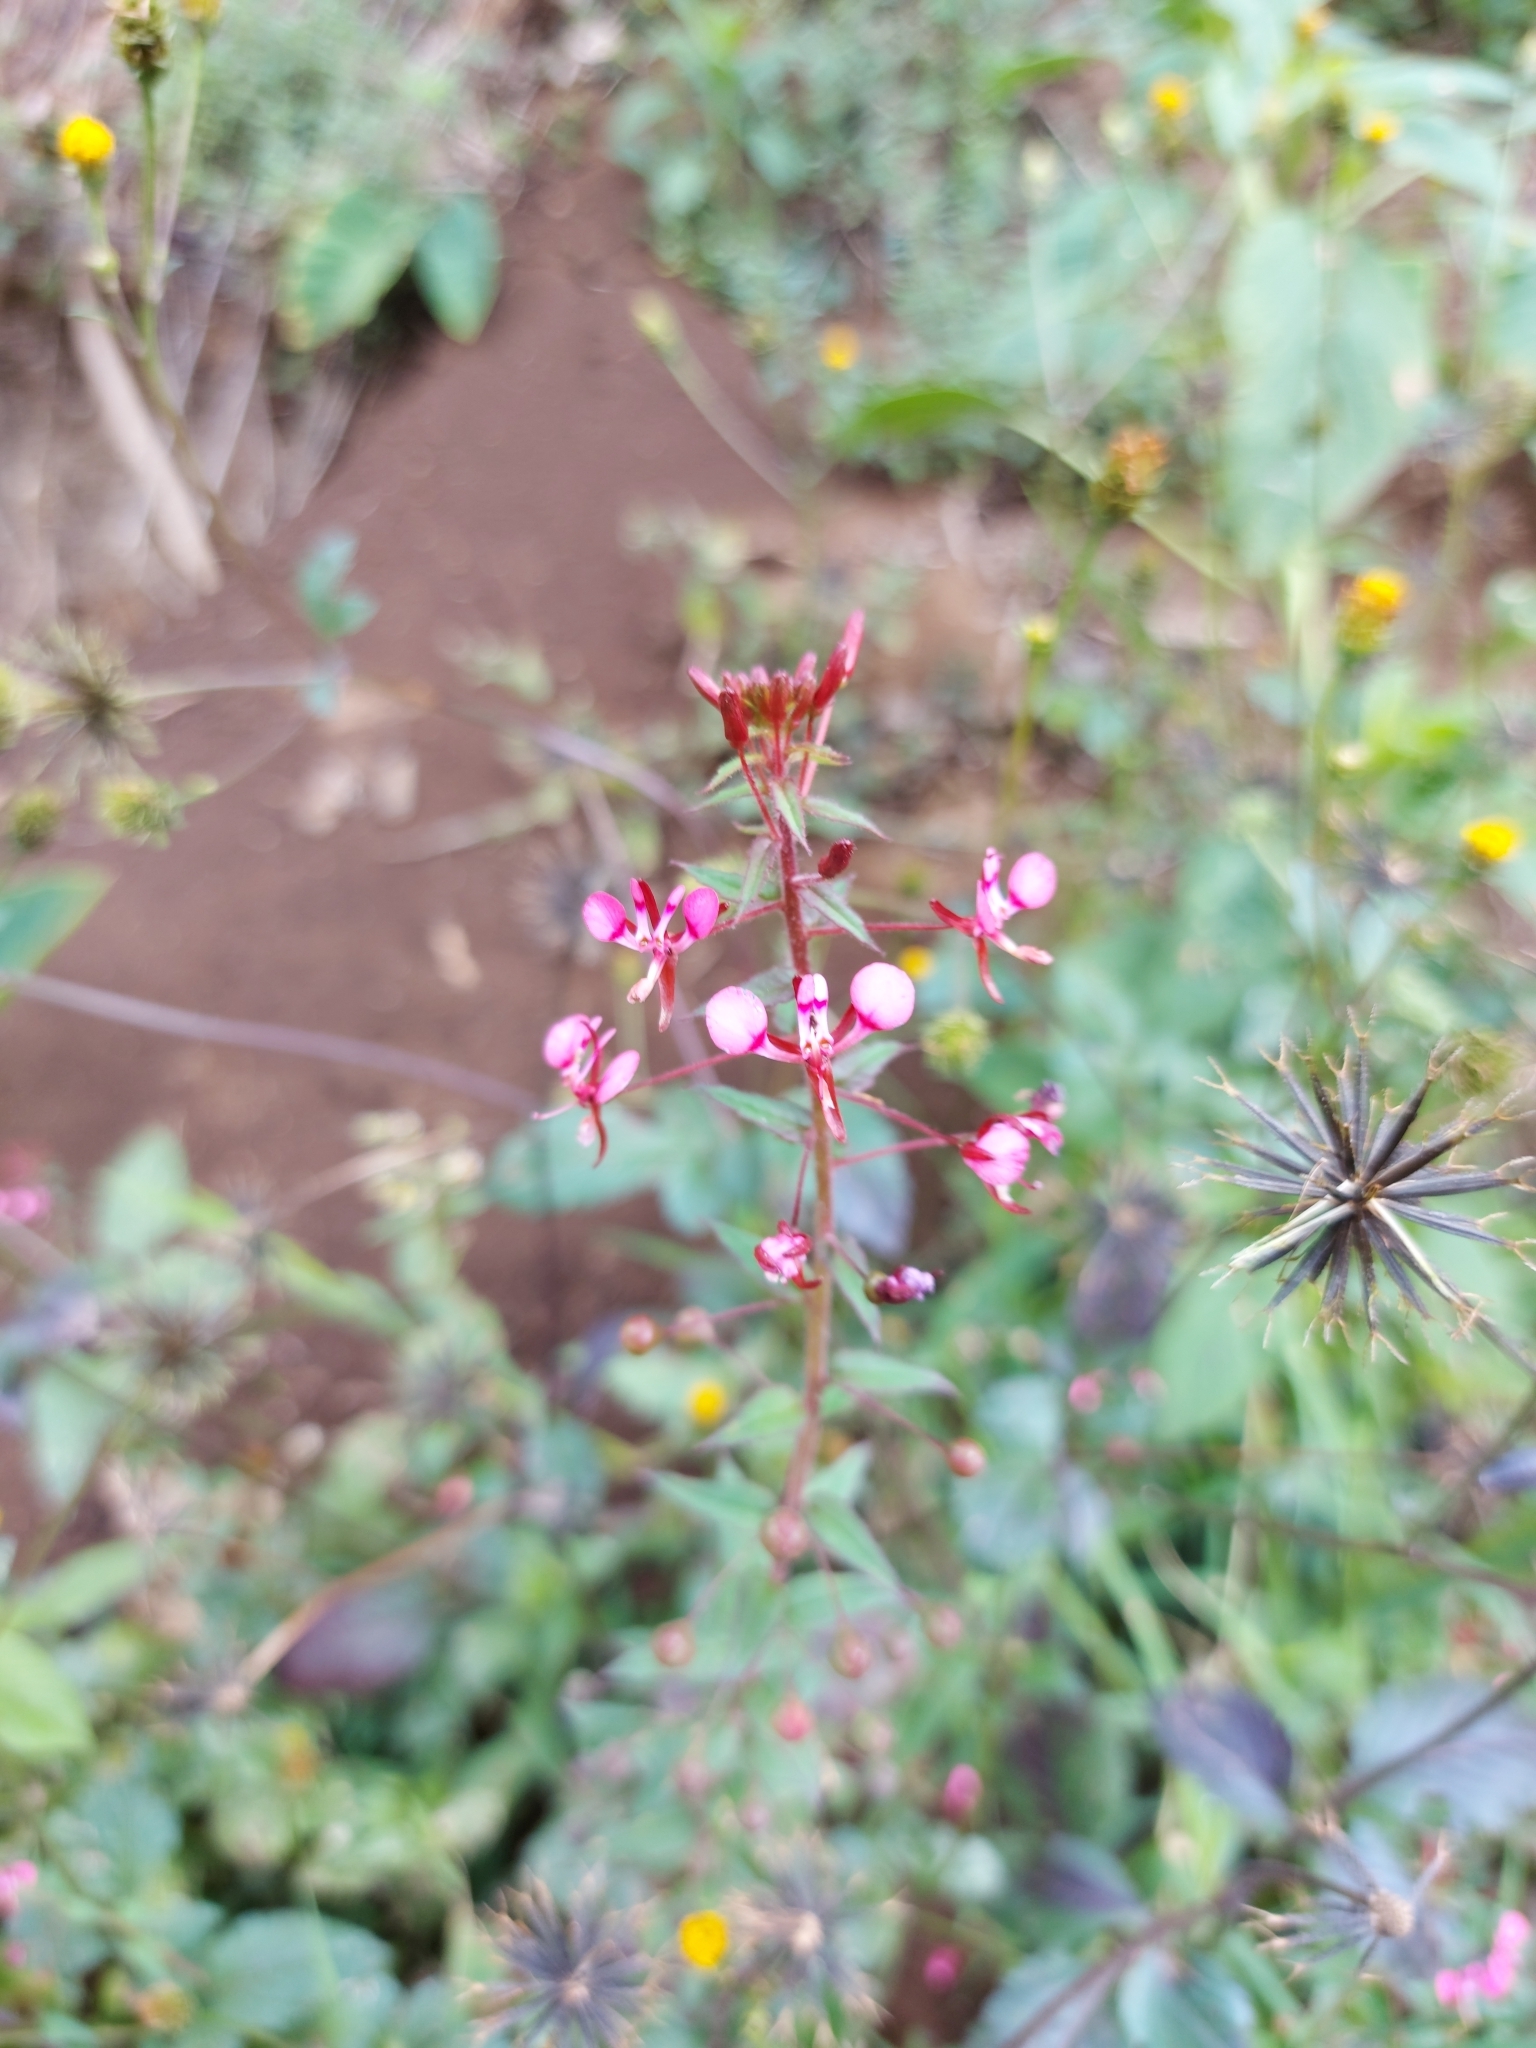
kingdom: Plantae
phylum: Tracheophyta
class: Magnoliopsida
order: Myrtales
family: Onagraceae
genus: Lopezia
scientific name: Lopezia racemosa
